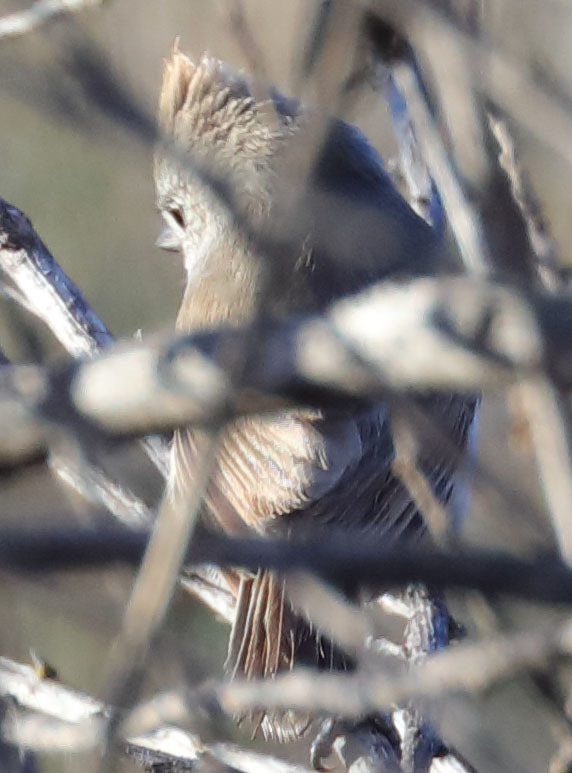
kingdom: Animalia
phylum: Chordata
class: Aves
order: Passeriformes
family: Paridae
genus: Baeolophus
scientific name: Baeolophus inornatus
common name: Oak titmouse
